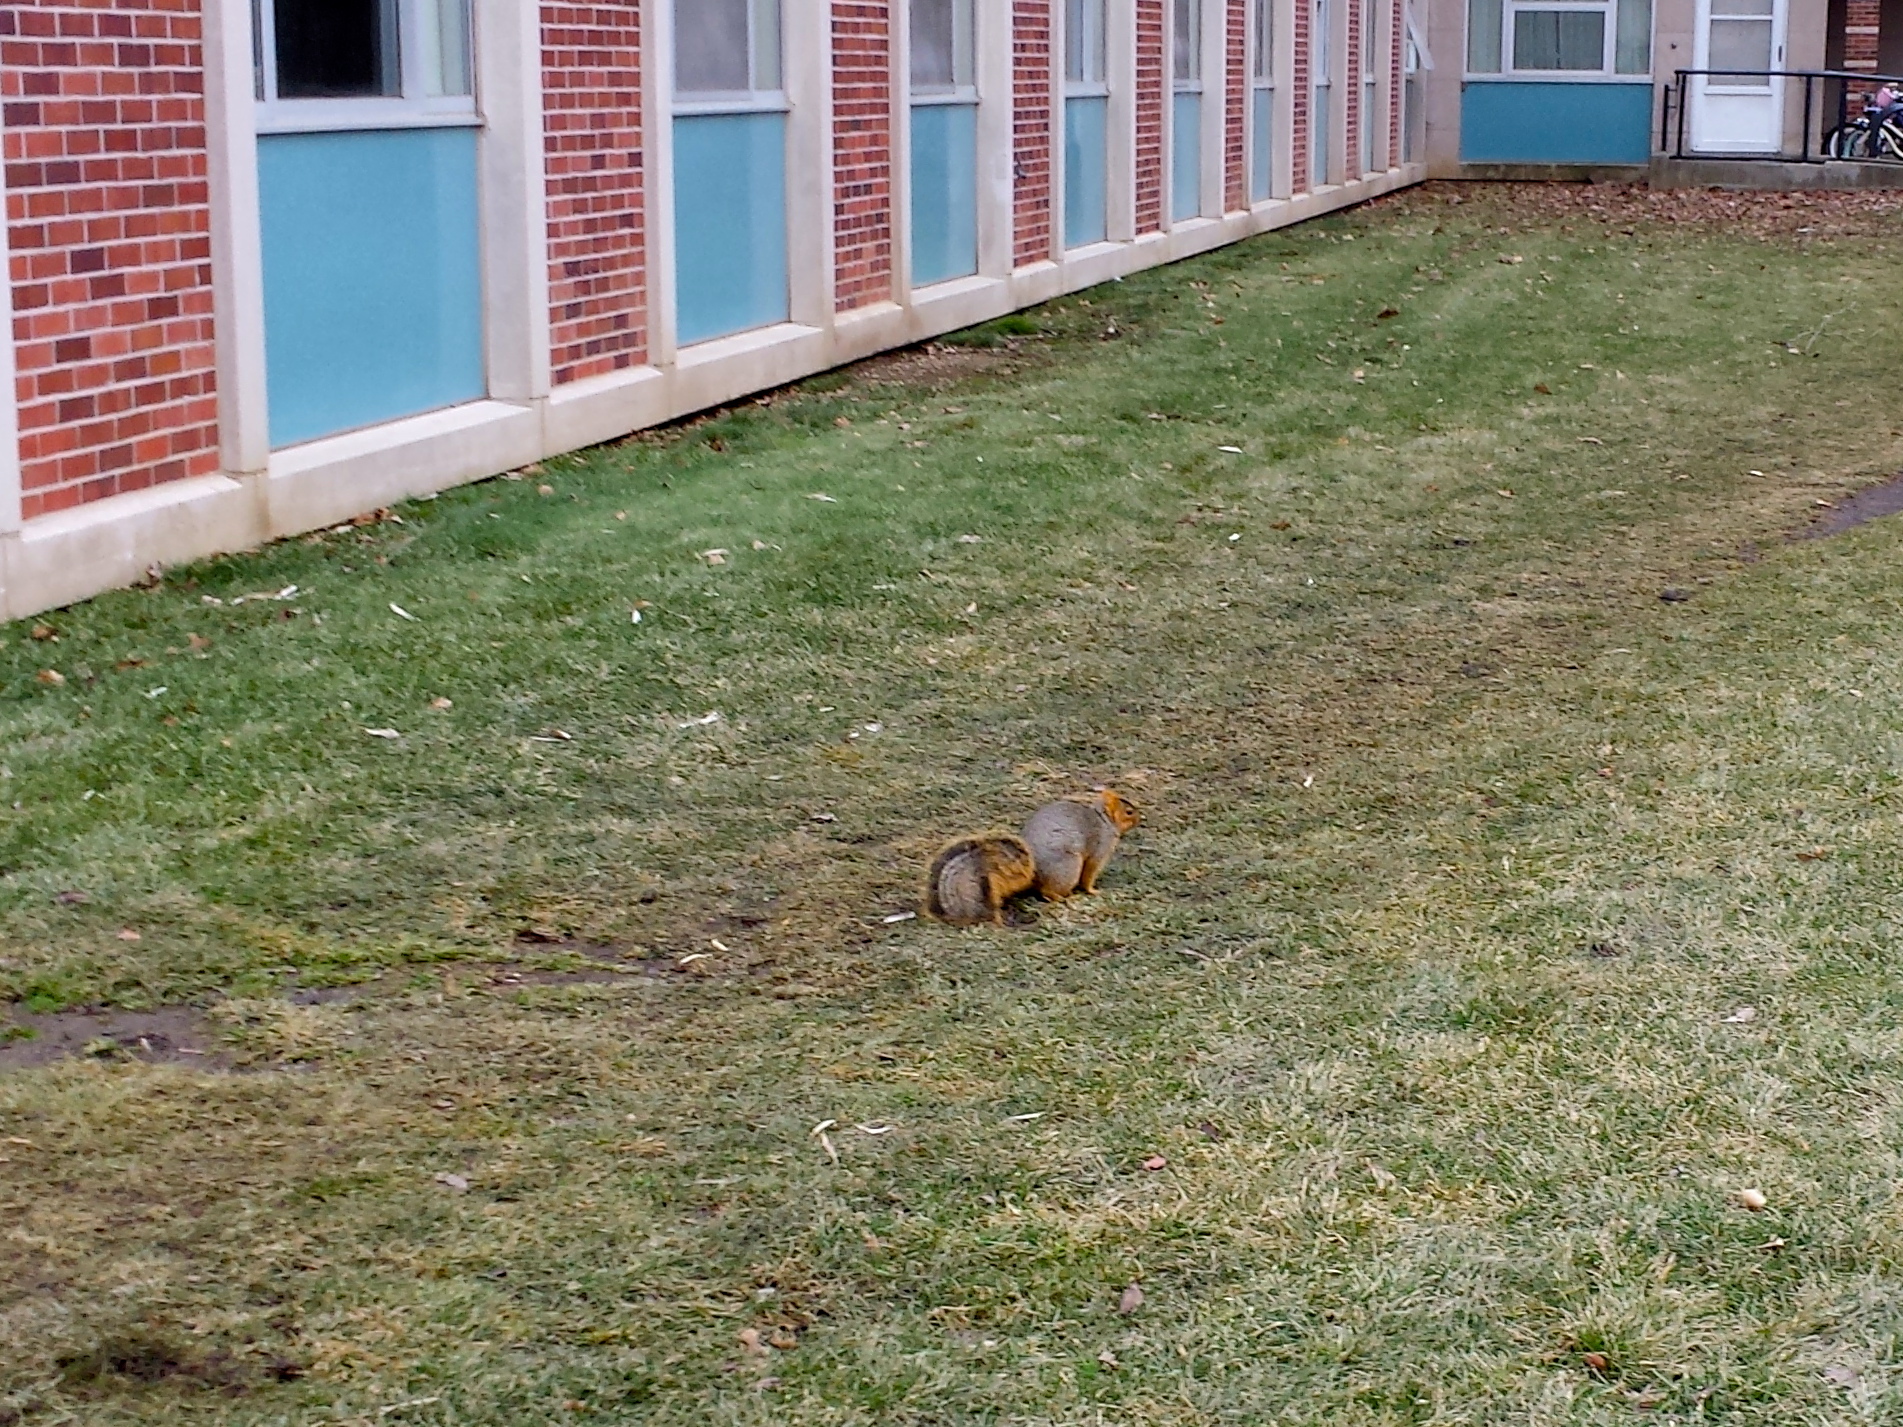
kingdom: Animalia
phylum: Chordata
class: Mammalia
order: Rodentia
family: Sciuridae
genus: Sciurus
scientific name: Sciurus niger
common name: Fox squirrel
